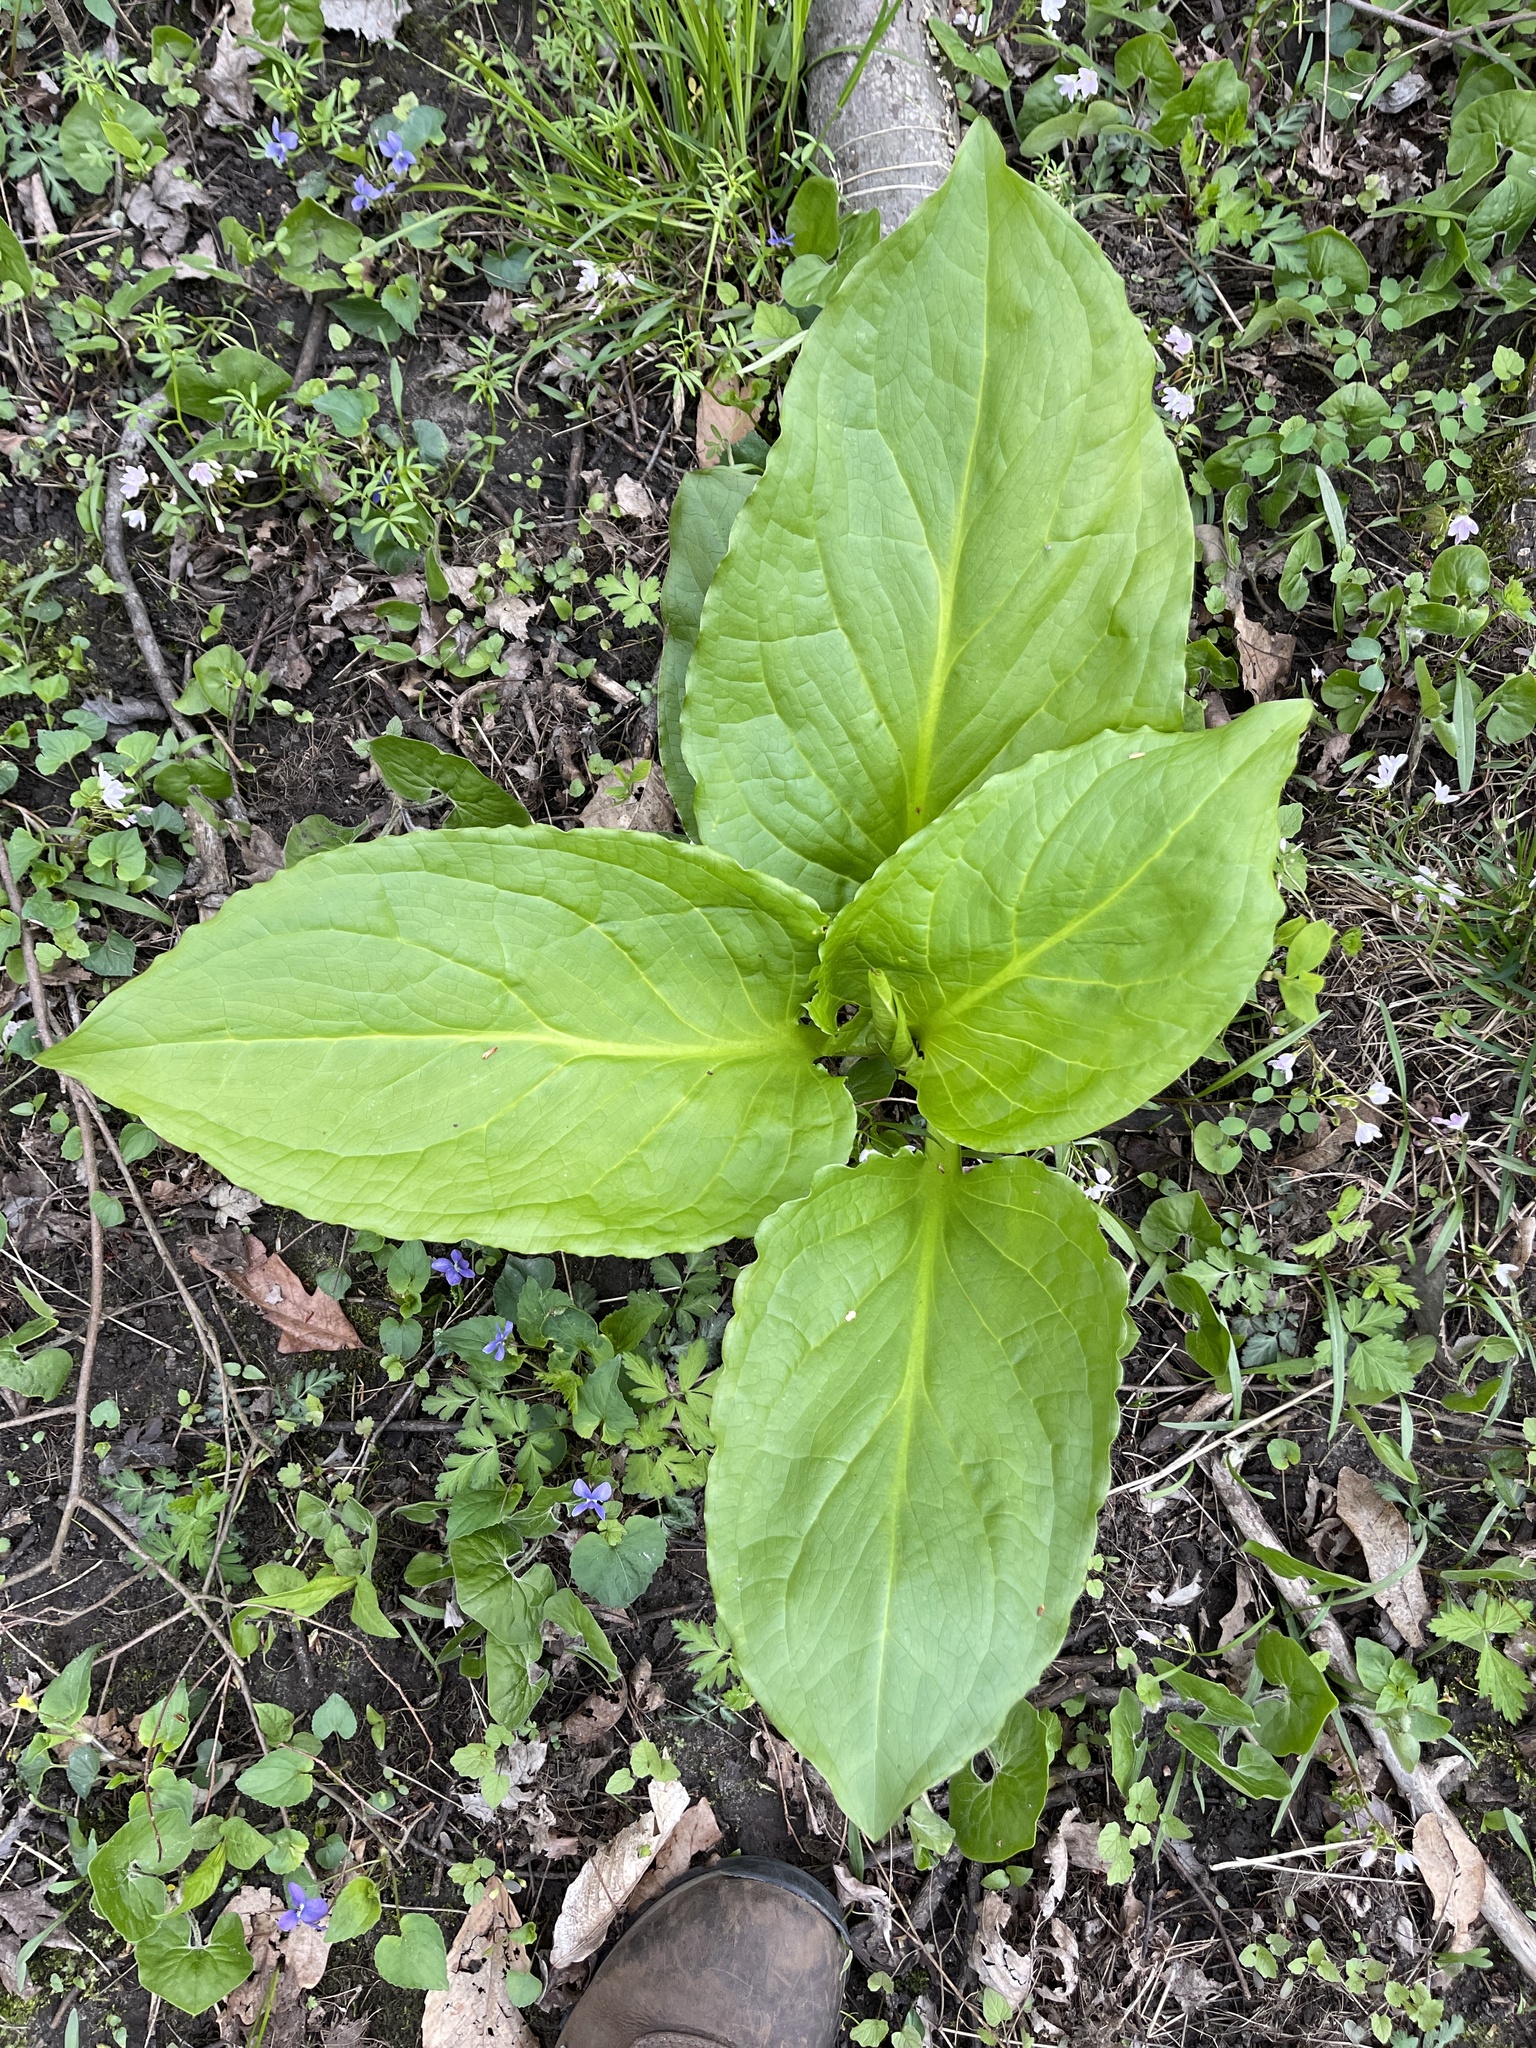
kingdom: Plantae
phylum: Tracheophyta
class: Liliopsida
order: Alismatales
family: Araceae
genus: Symplocarpus
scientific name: Symplocarpus foetidus
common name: Eastern skunk cabbage
